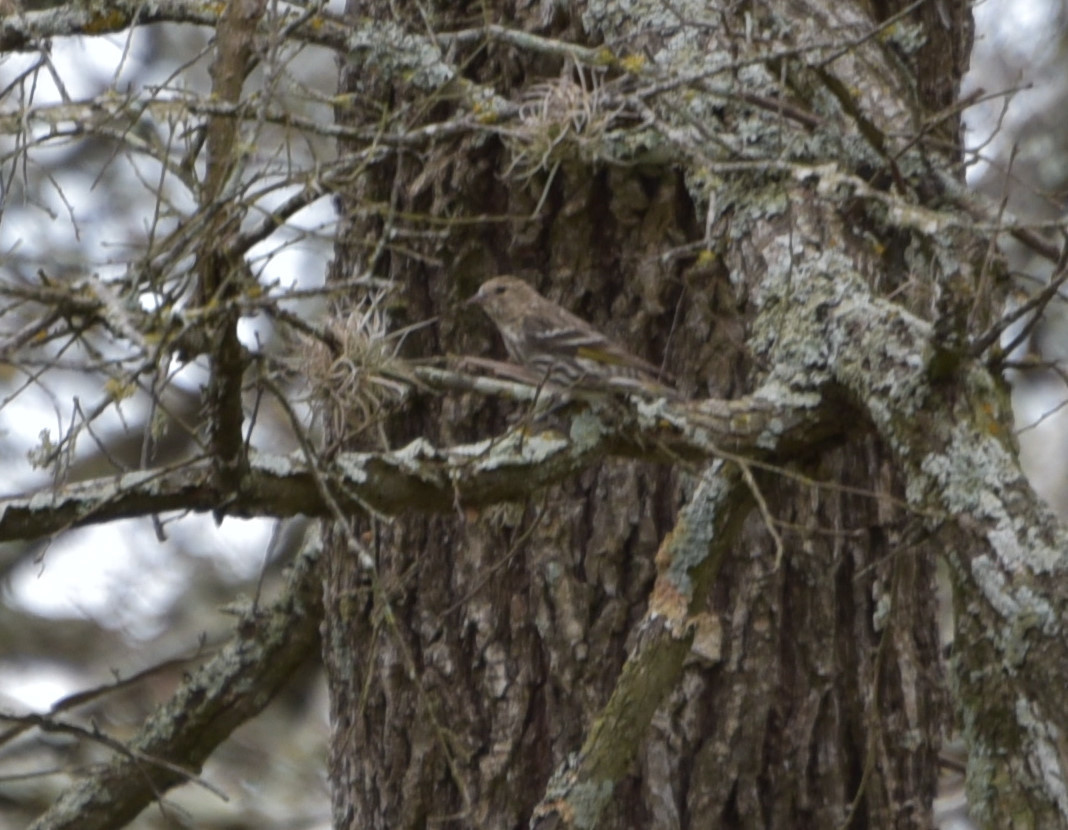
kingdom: Animalia
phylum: Chordata
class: Aves
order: Passeriformes
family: Fringillidae
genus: Spinus
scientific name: Spinus pinus
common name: Pine siskin
